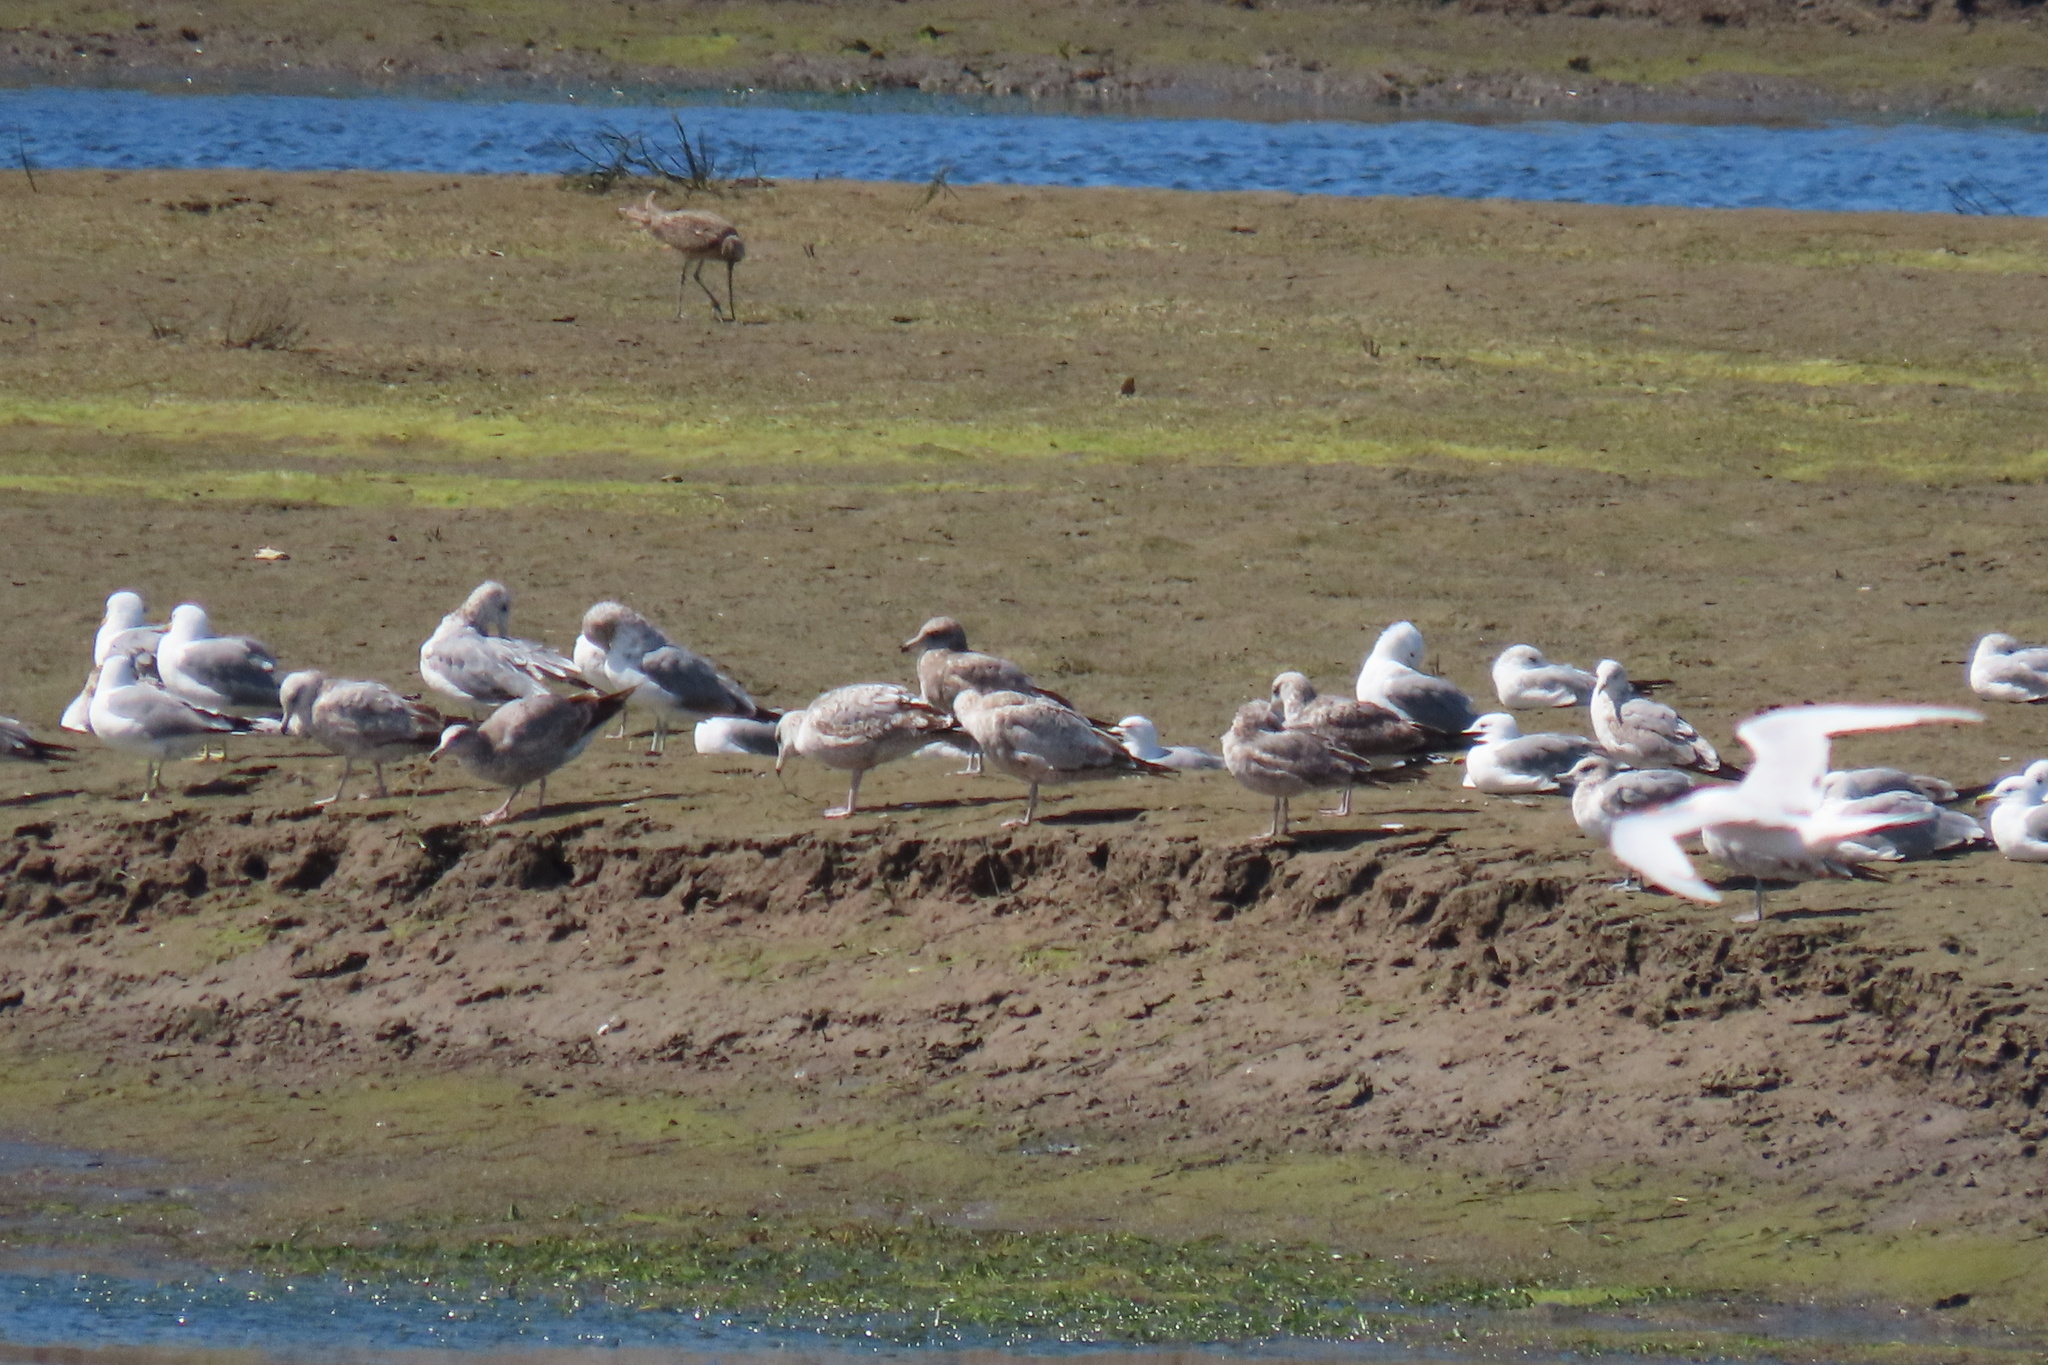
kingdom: Animalia
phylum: Chordata
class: Aves
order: Charadriiformes
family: Laridae
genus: Larus
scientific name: Larus californicus
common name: California gull
